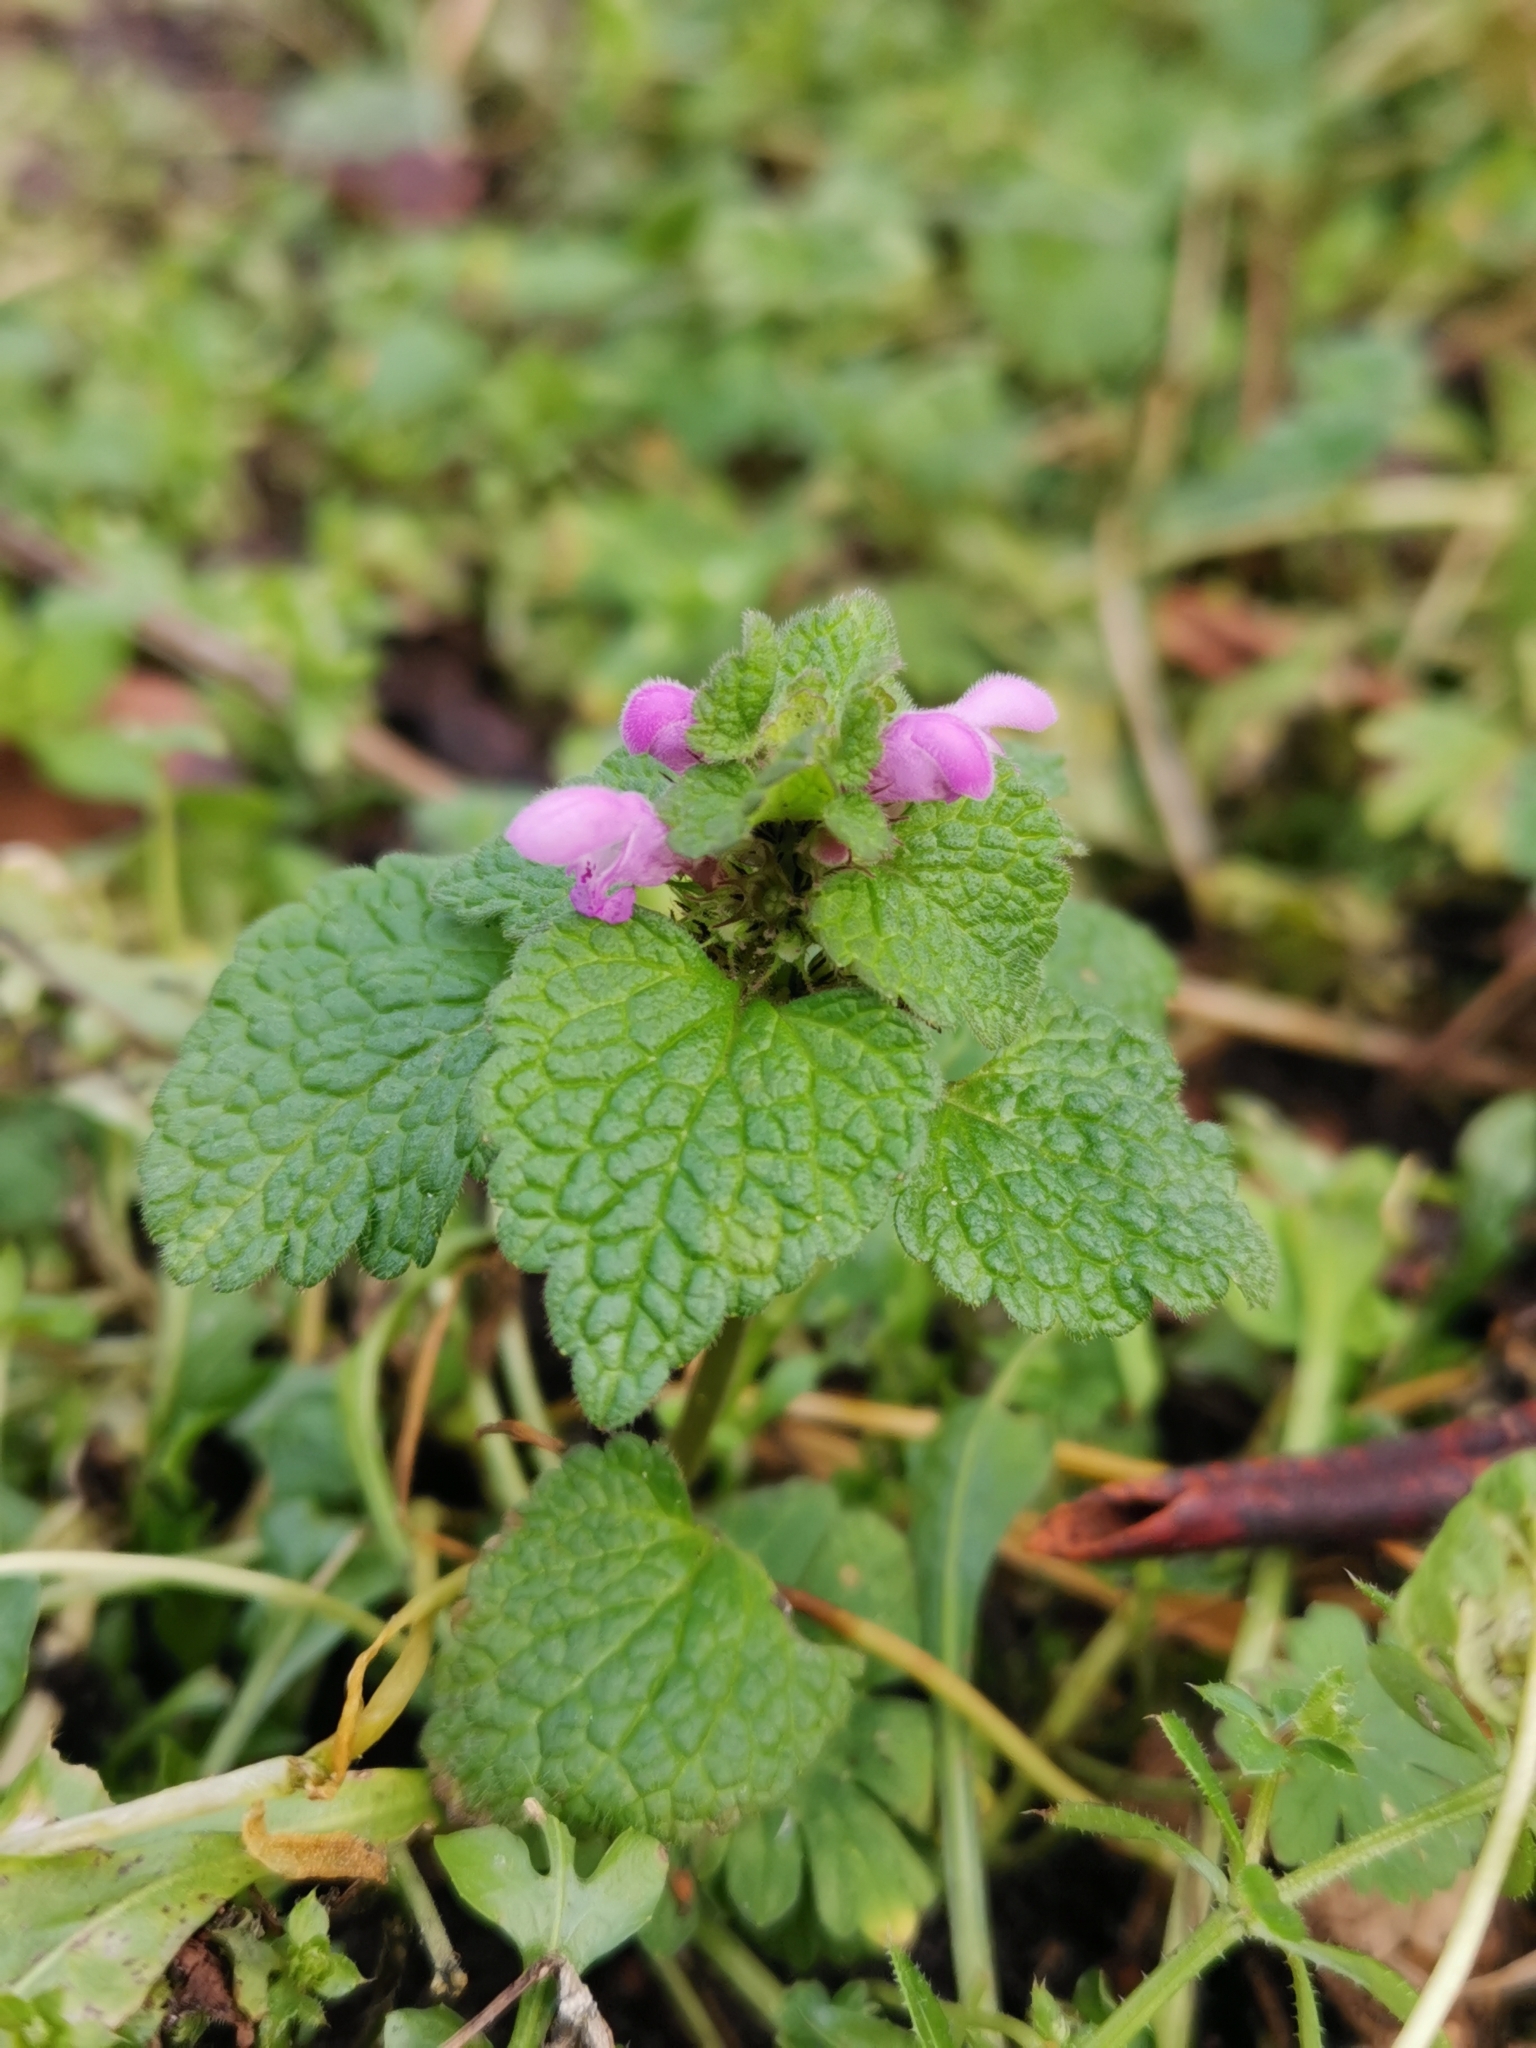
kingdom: Plantae
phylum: Tracheophyta
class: Magnoliopsida
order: Lamiales
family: Lamiaceae
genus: Lamium
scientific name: Lamium purpureum
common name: Red dead-nettle
